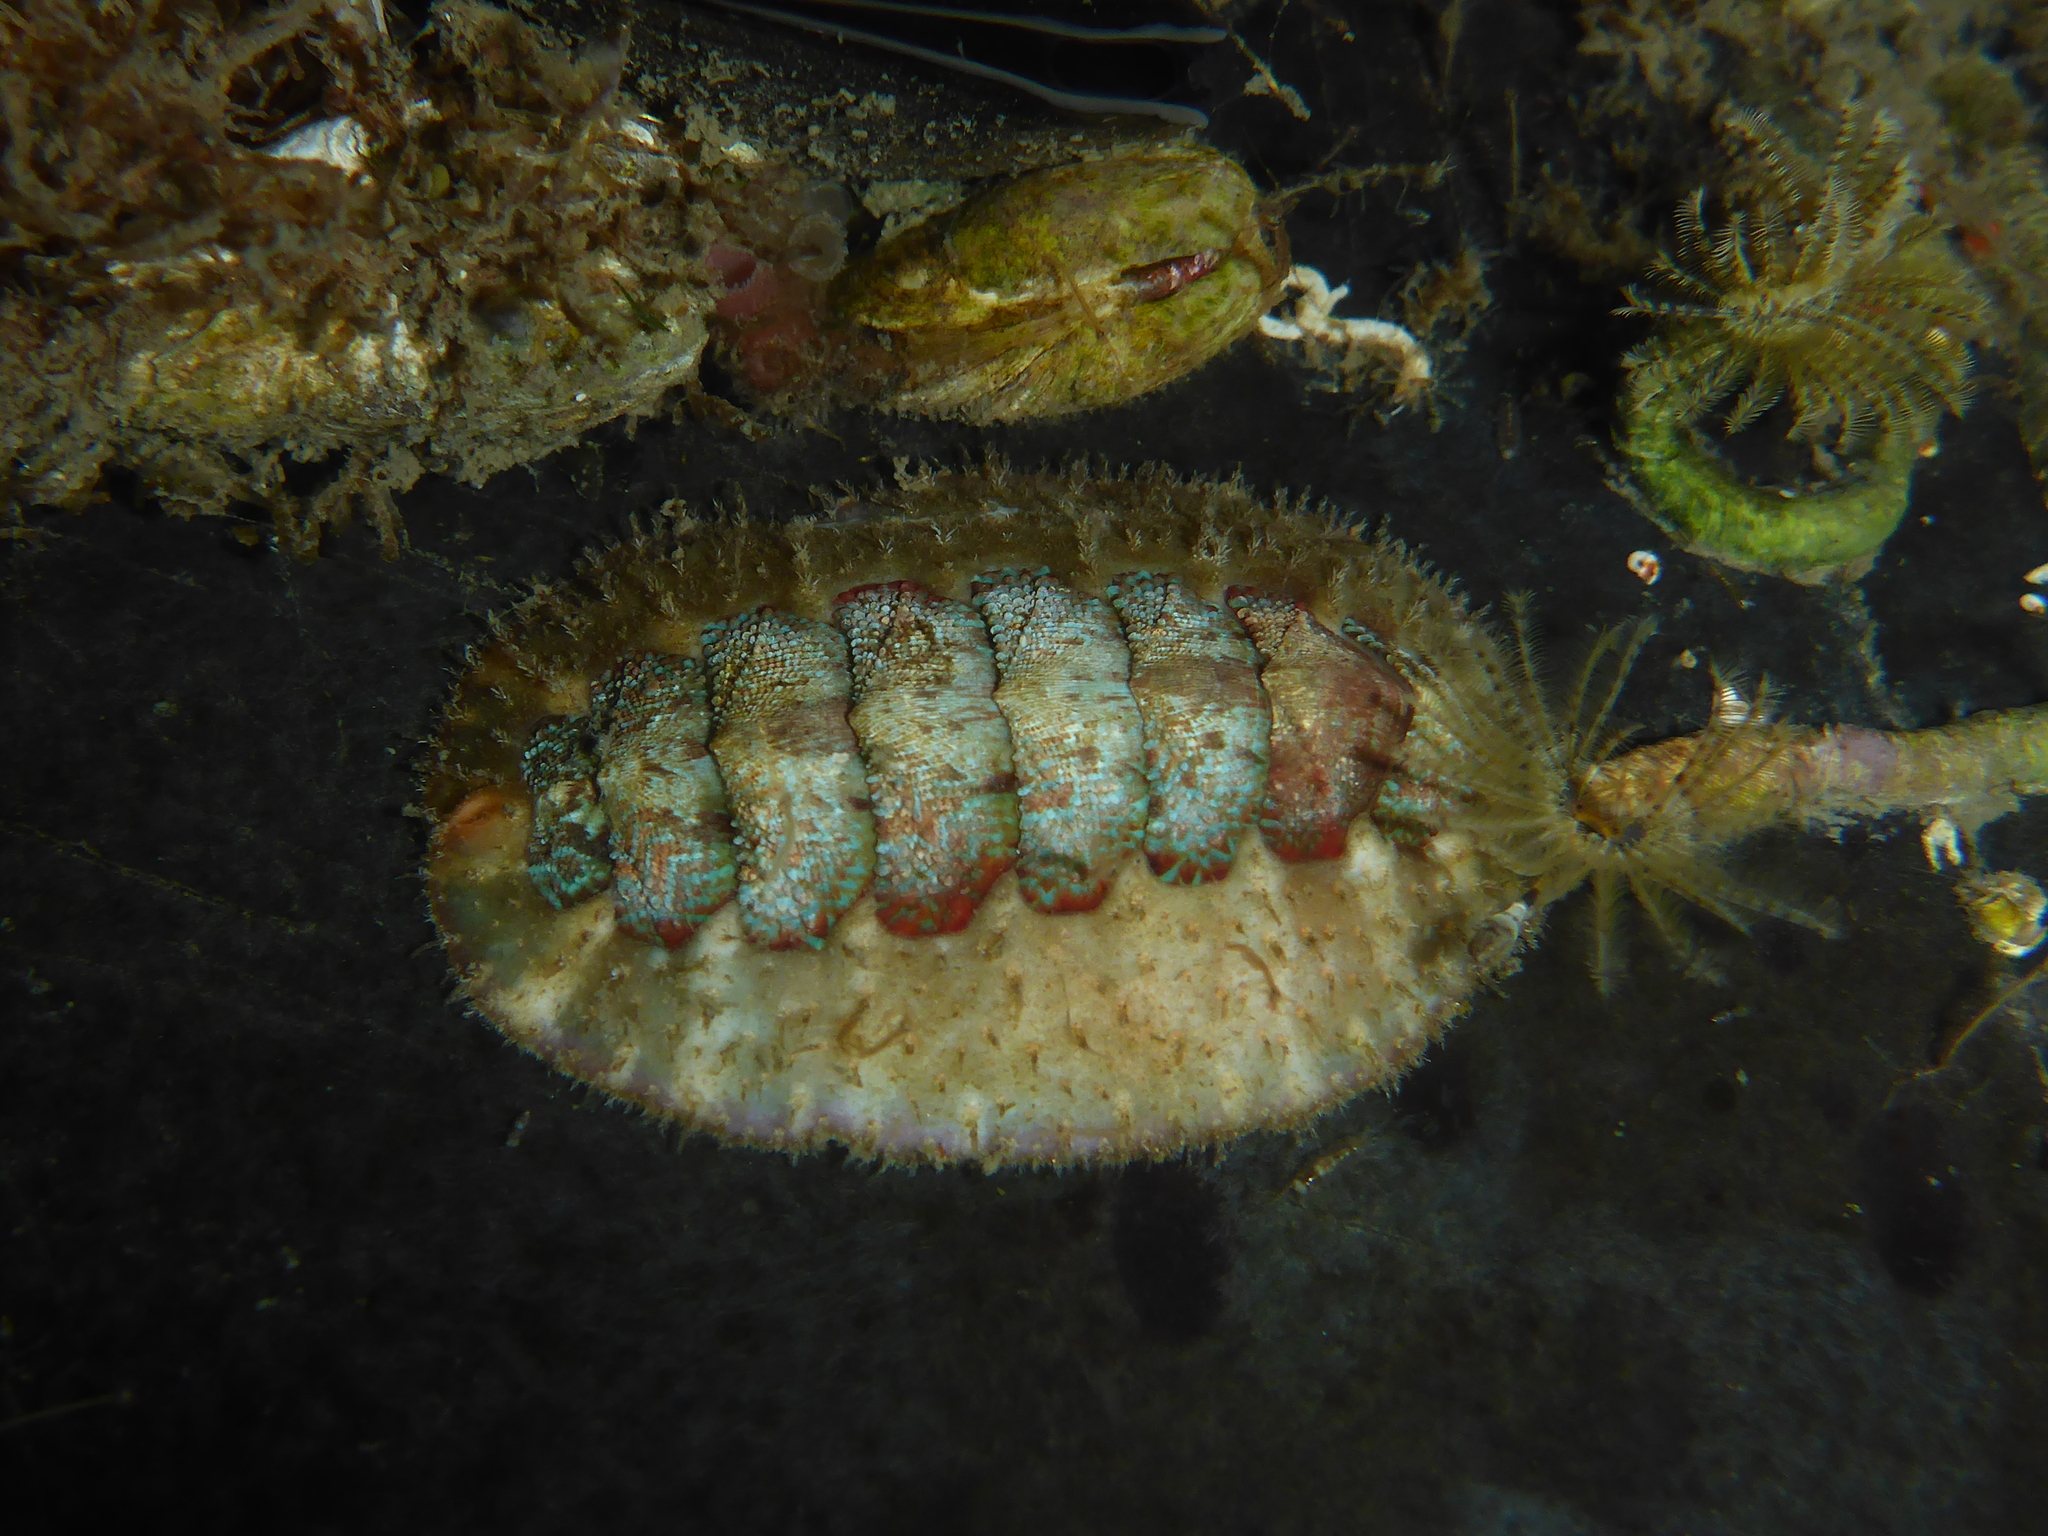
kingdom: Animalia
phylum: Mollusca
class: Polyplacophora
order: Chitonida
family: Mopaliidae
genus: Mopalia
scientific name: Mopalia spectabilis
